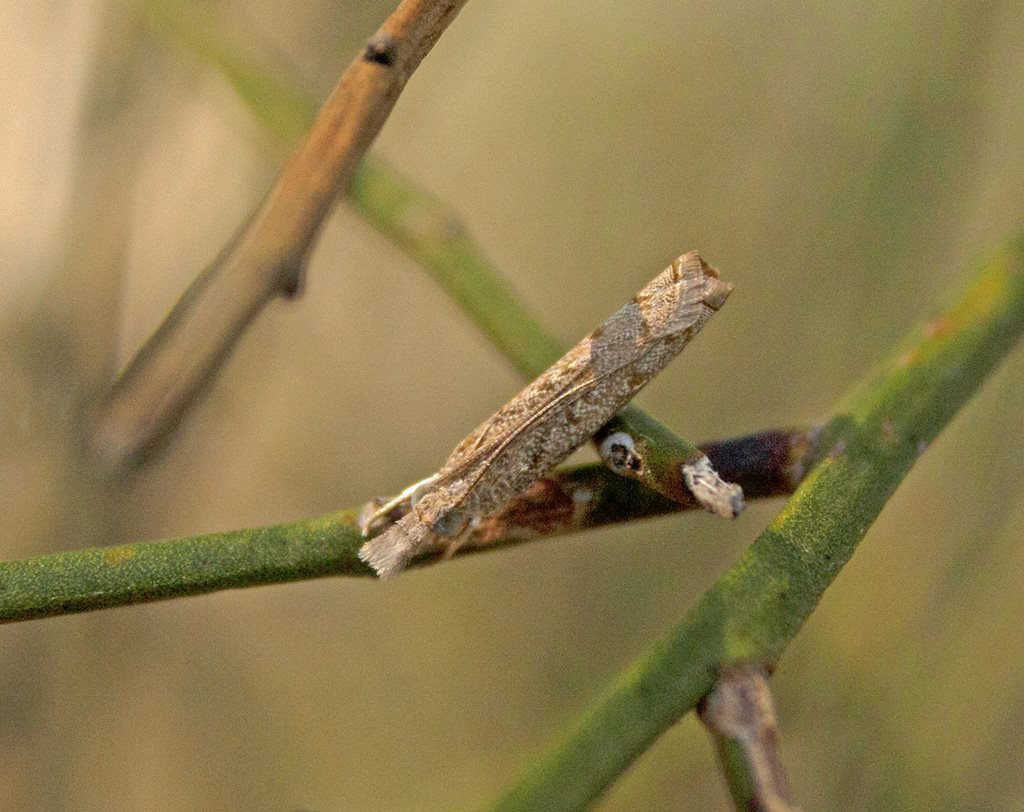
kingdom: Animalia
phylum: Arthropoda
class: Insecta
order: Lepidoptera
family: Crambidae
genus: Culladia
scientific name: Culladia cuneiferellus
